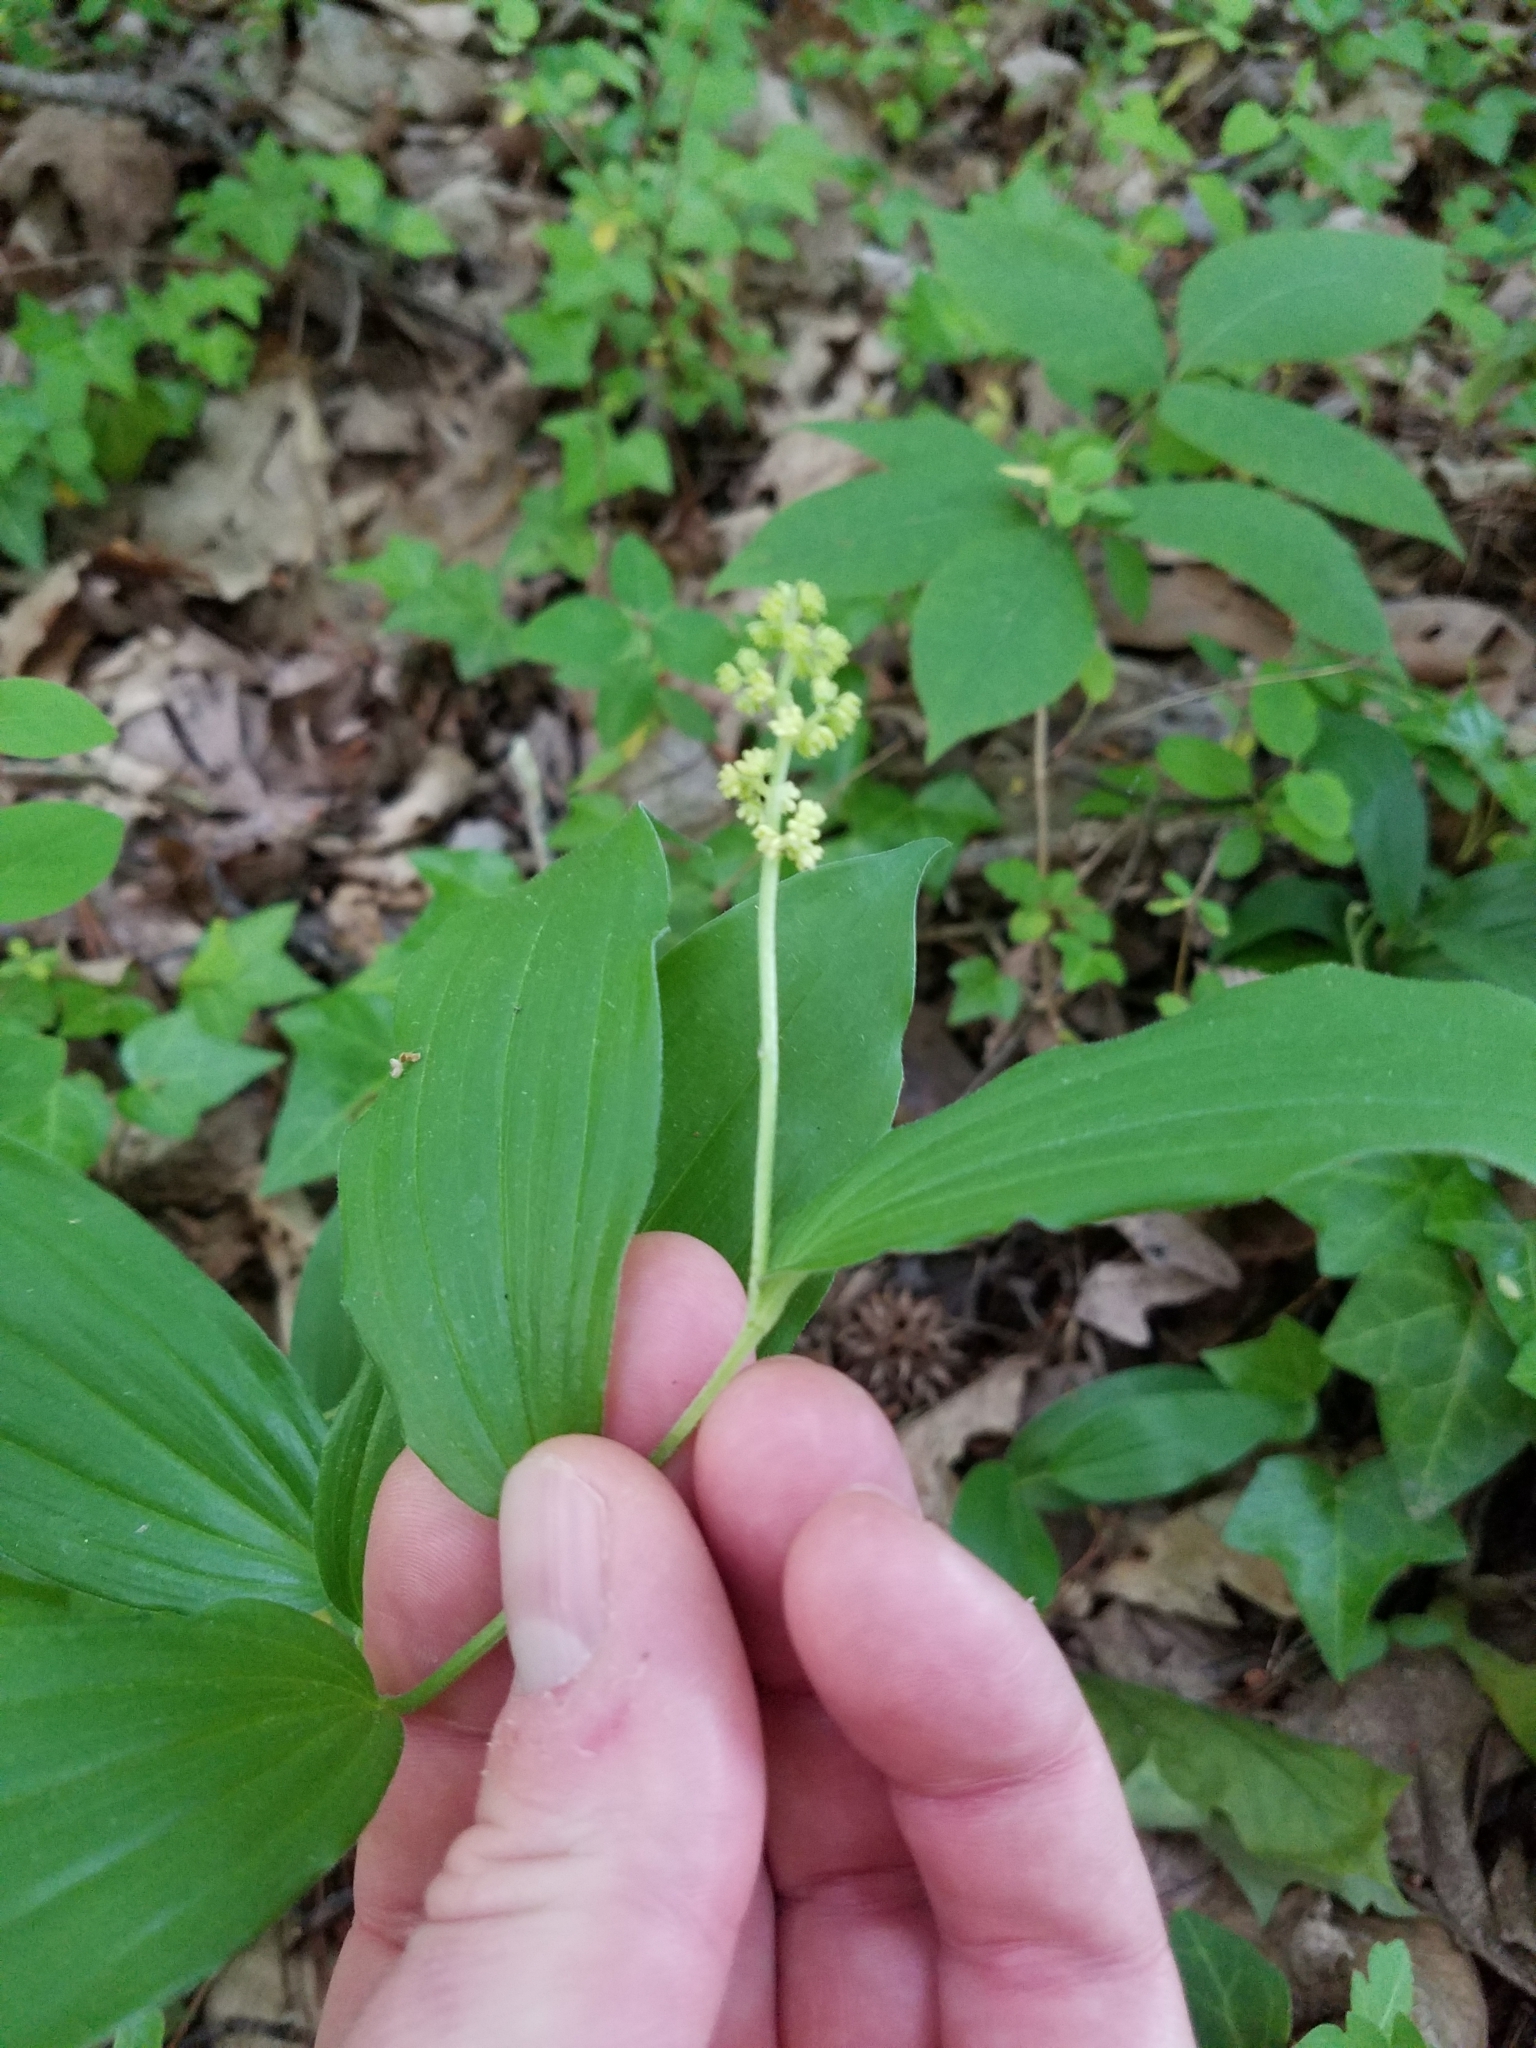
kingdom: Plantae
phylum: Tracheophyta
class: Liliopsida
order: Asparagales
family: Asparagaceae
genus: Maianthemum
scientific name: Maianthemum racemosum
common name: False spikenard
